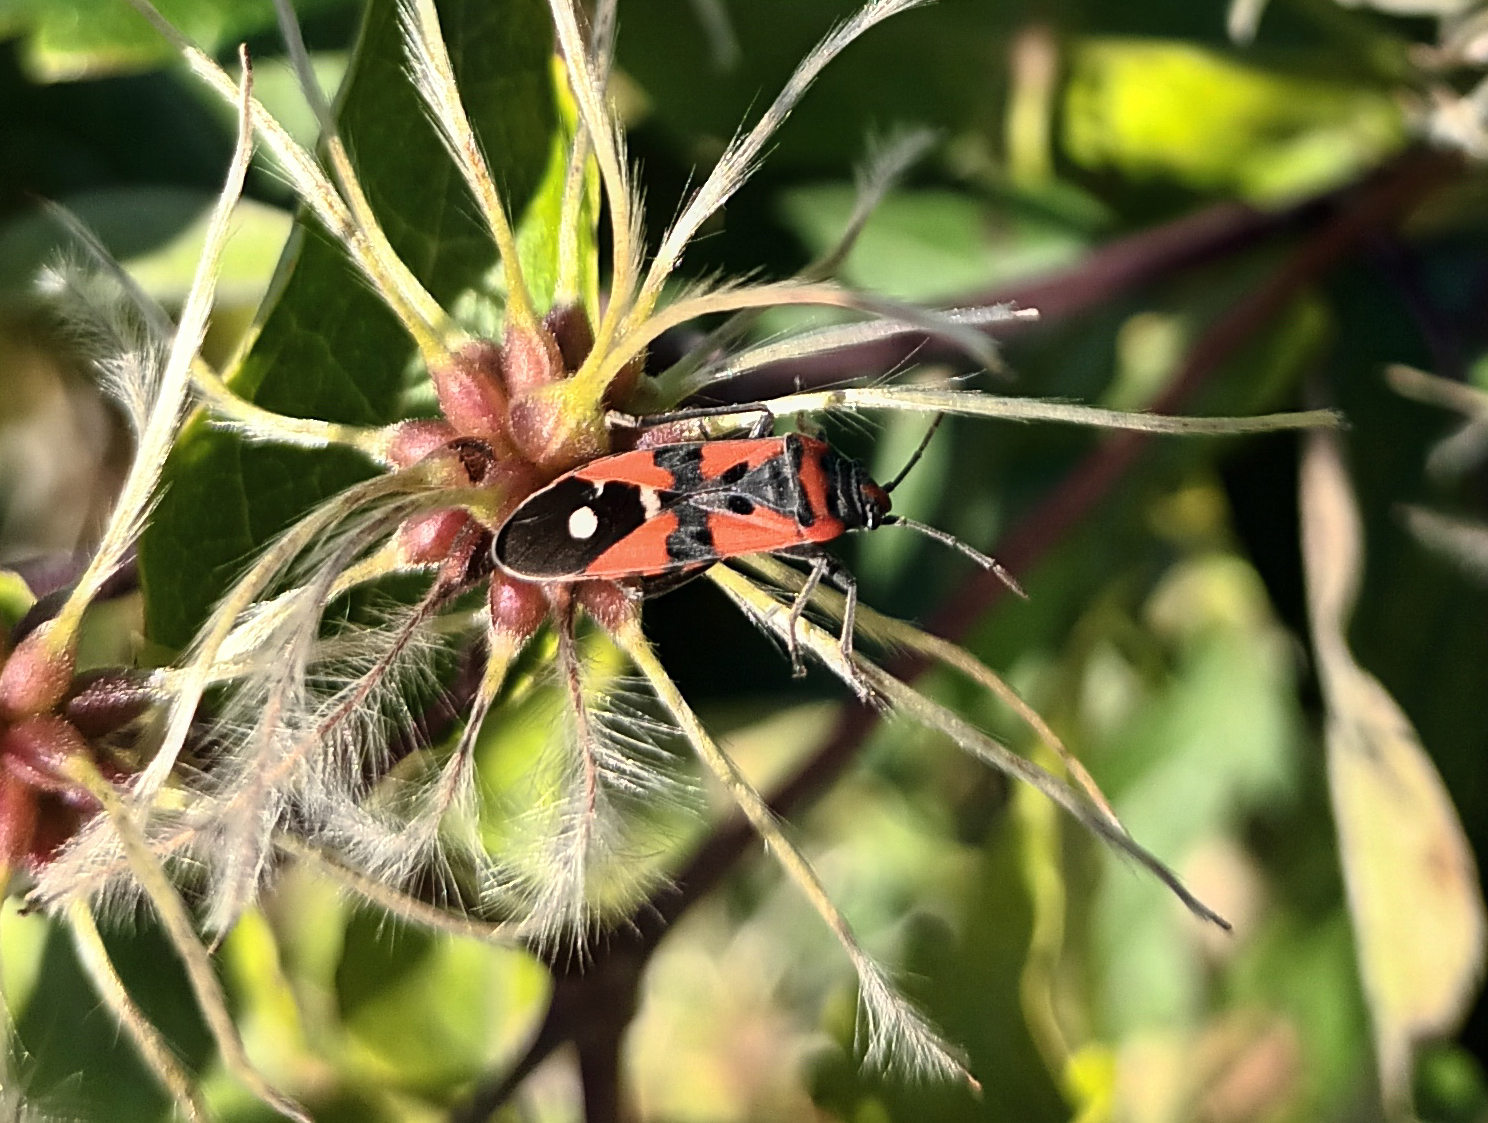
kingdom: Animalia
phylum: Arthropoda
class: Insecta
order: Hemiptera
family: Lygaeidae
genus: Lygaeus
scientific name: Lygaeus equestris
